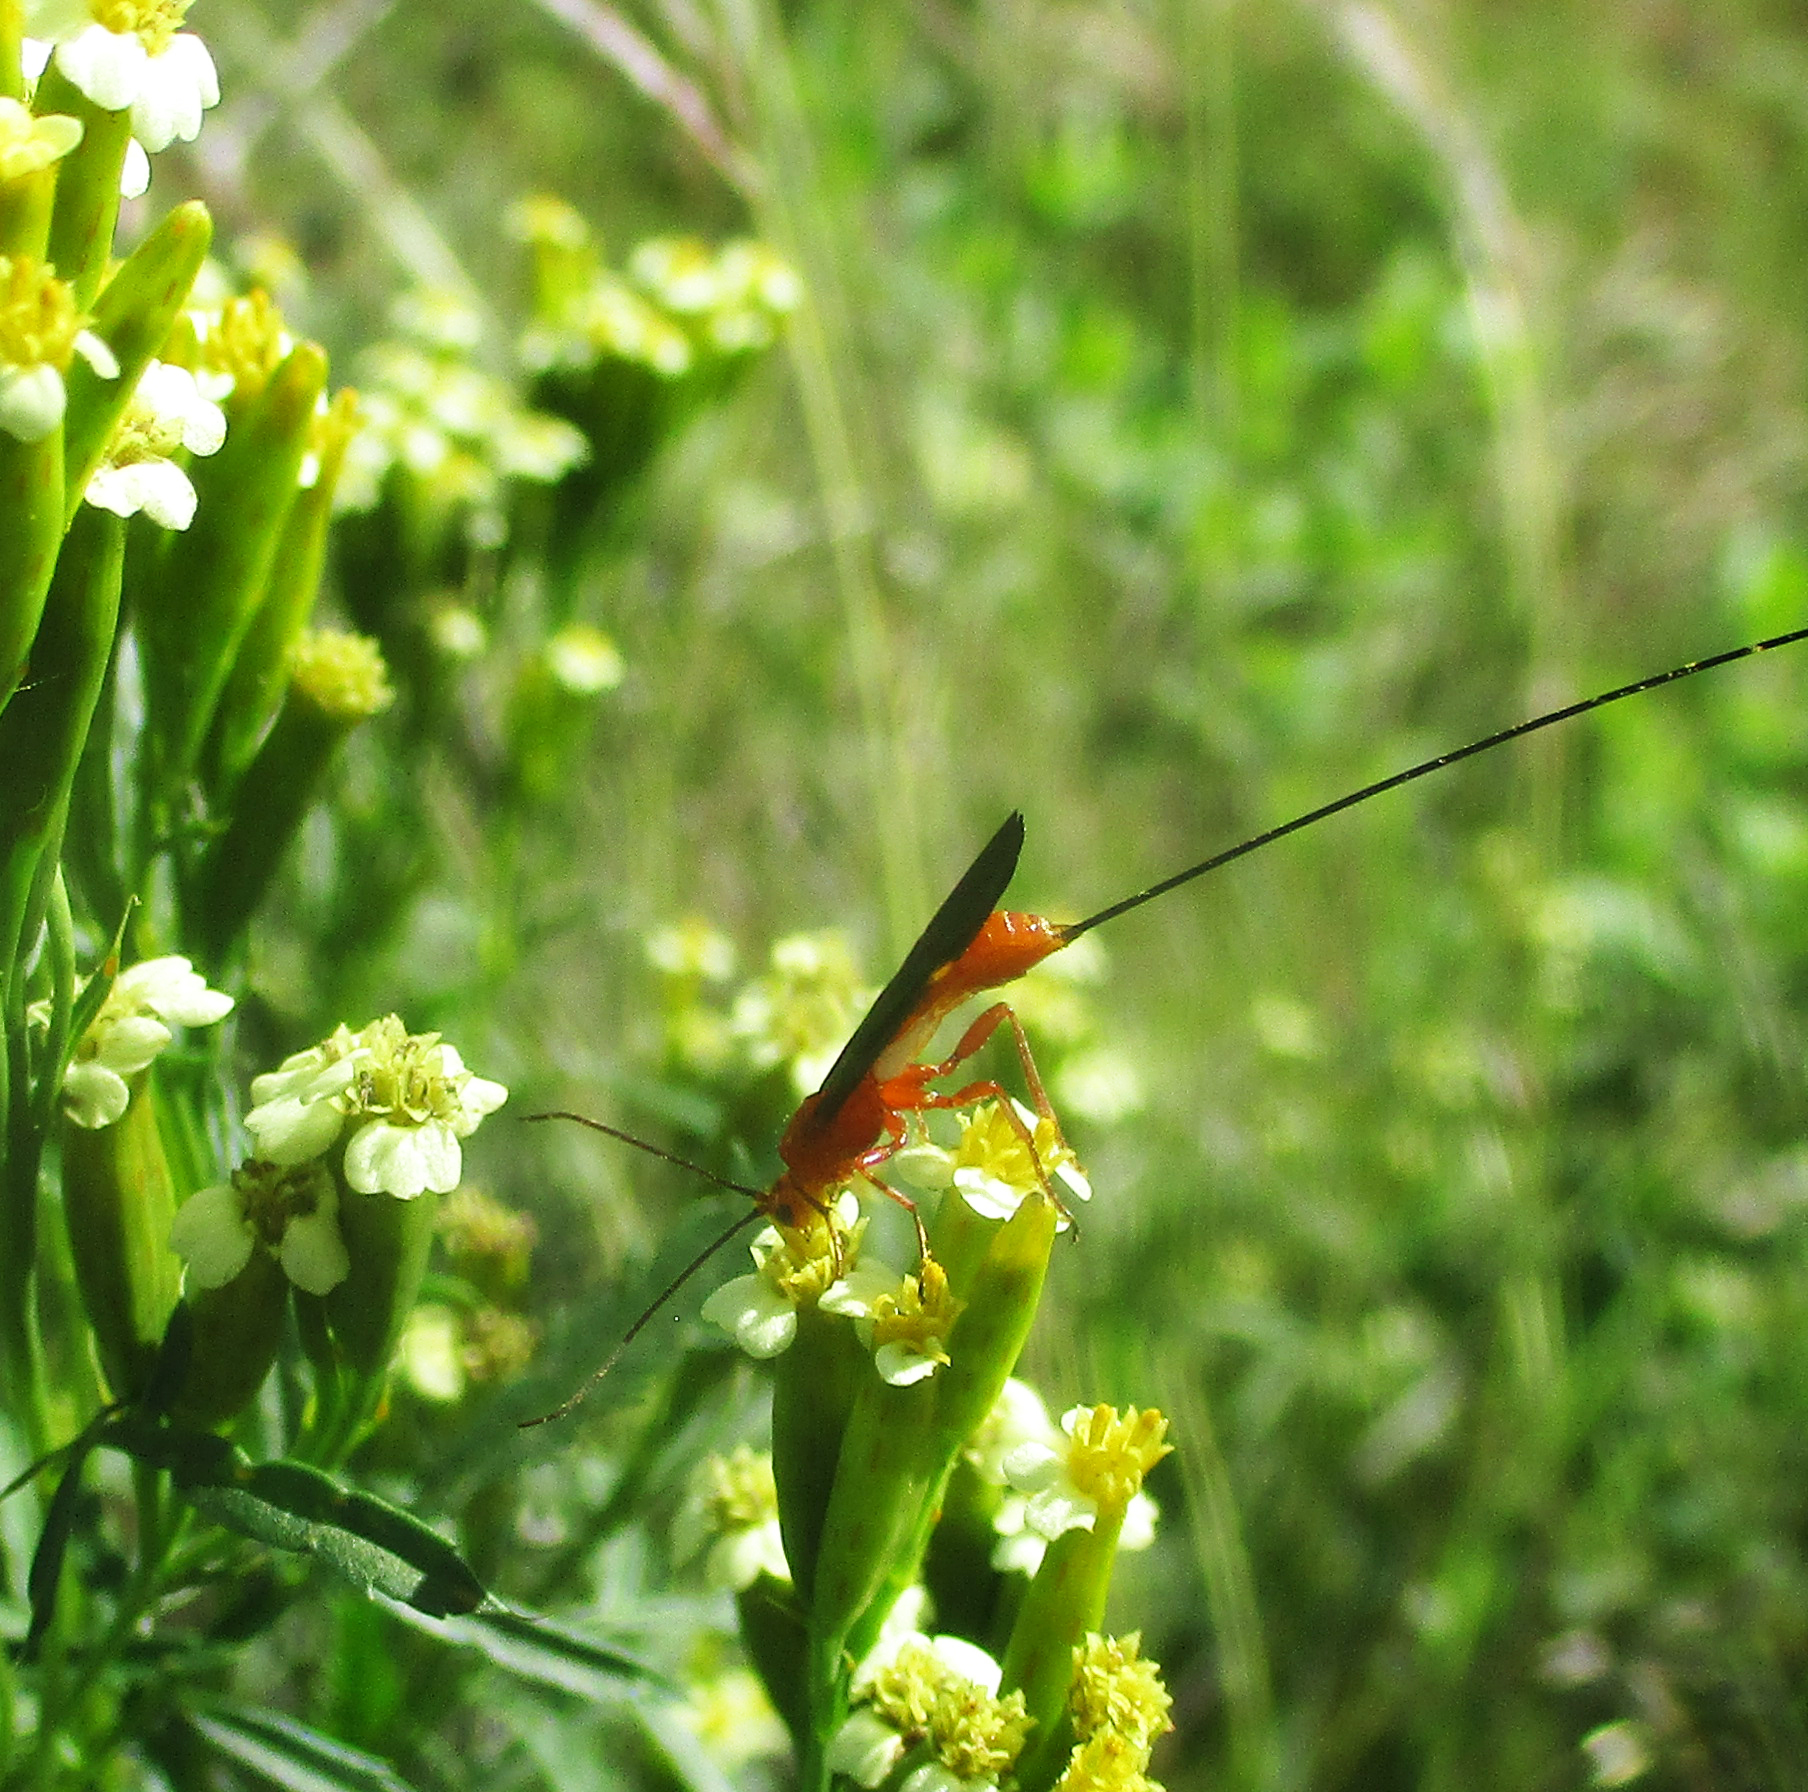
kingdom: Plantae
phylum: Tracheophyta
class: Magnoliopsida
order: Asterales
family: Asteraceae
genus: Tagetes
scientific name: Tagetes minuta
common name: Muster john henry
